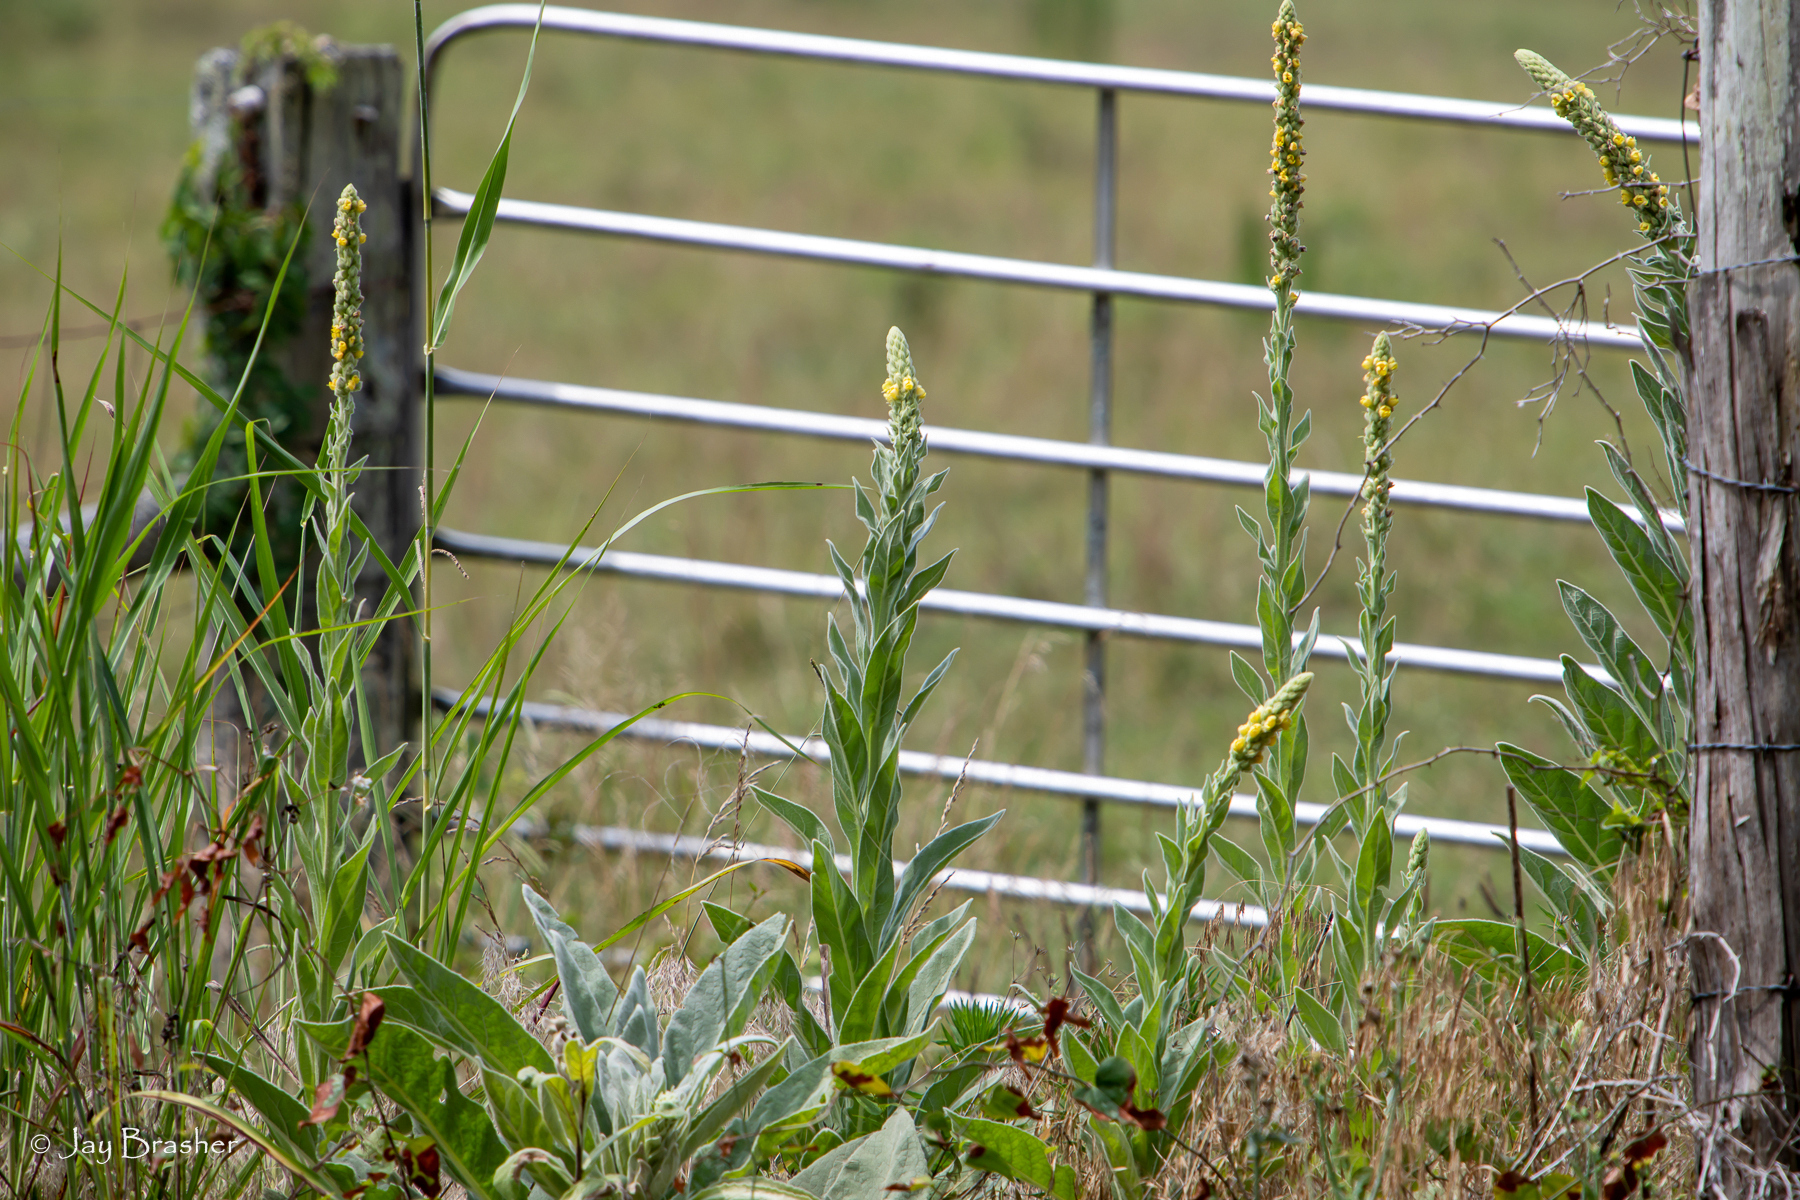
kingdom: Plantae
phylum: Tracheophyta
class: Magnoliopsida
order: Lamiales
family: Scrophulariaceae
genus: Verbascum
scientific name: Verbascum thapsus
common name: Common mullein
